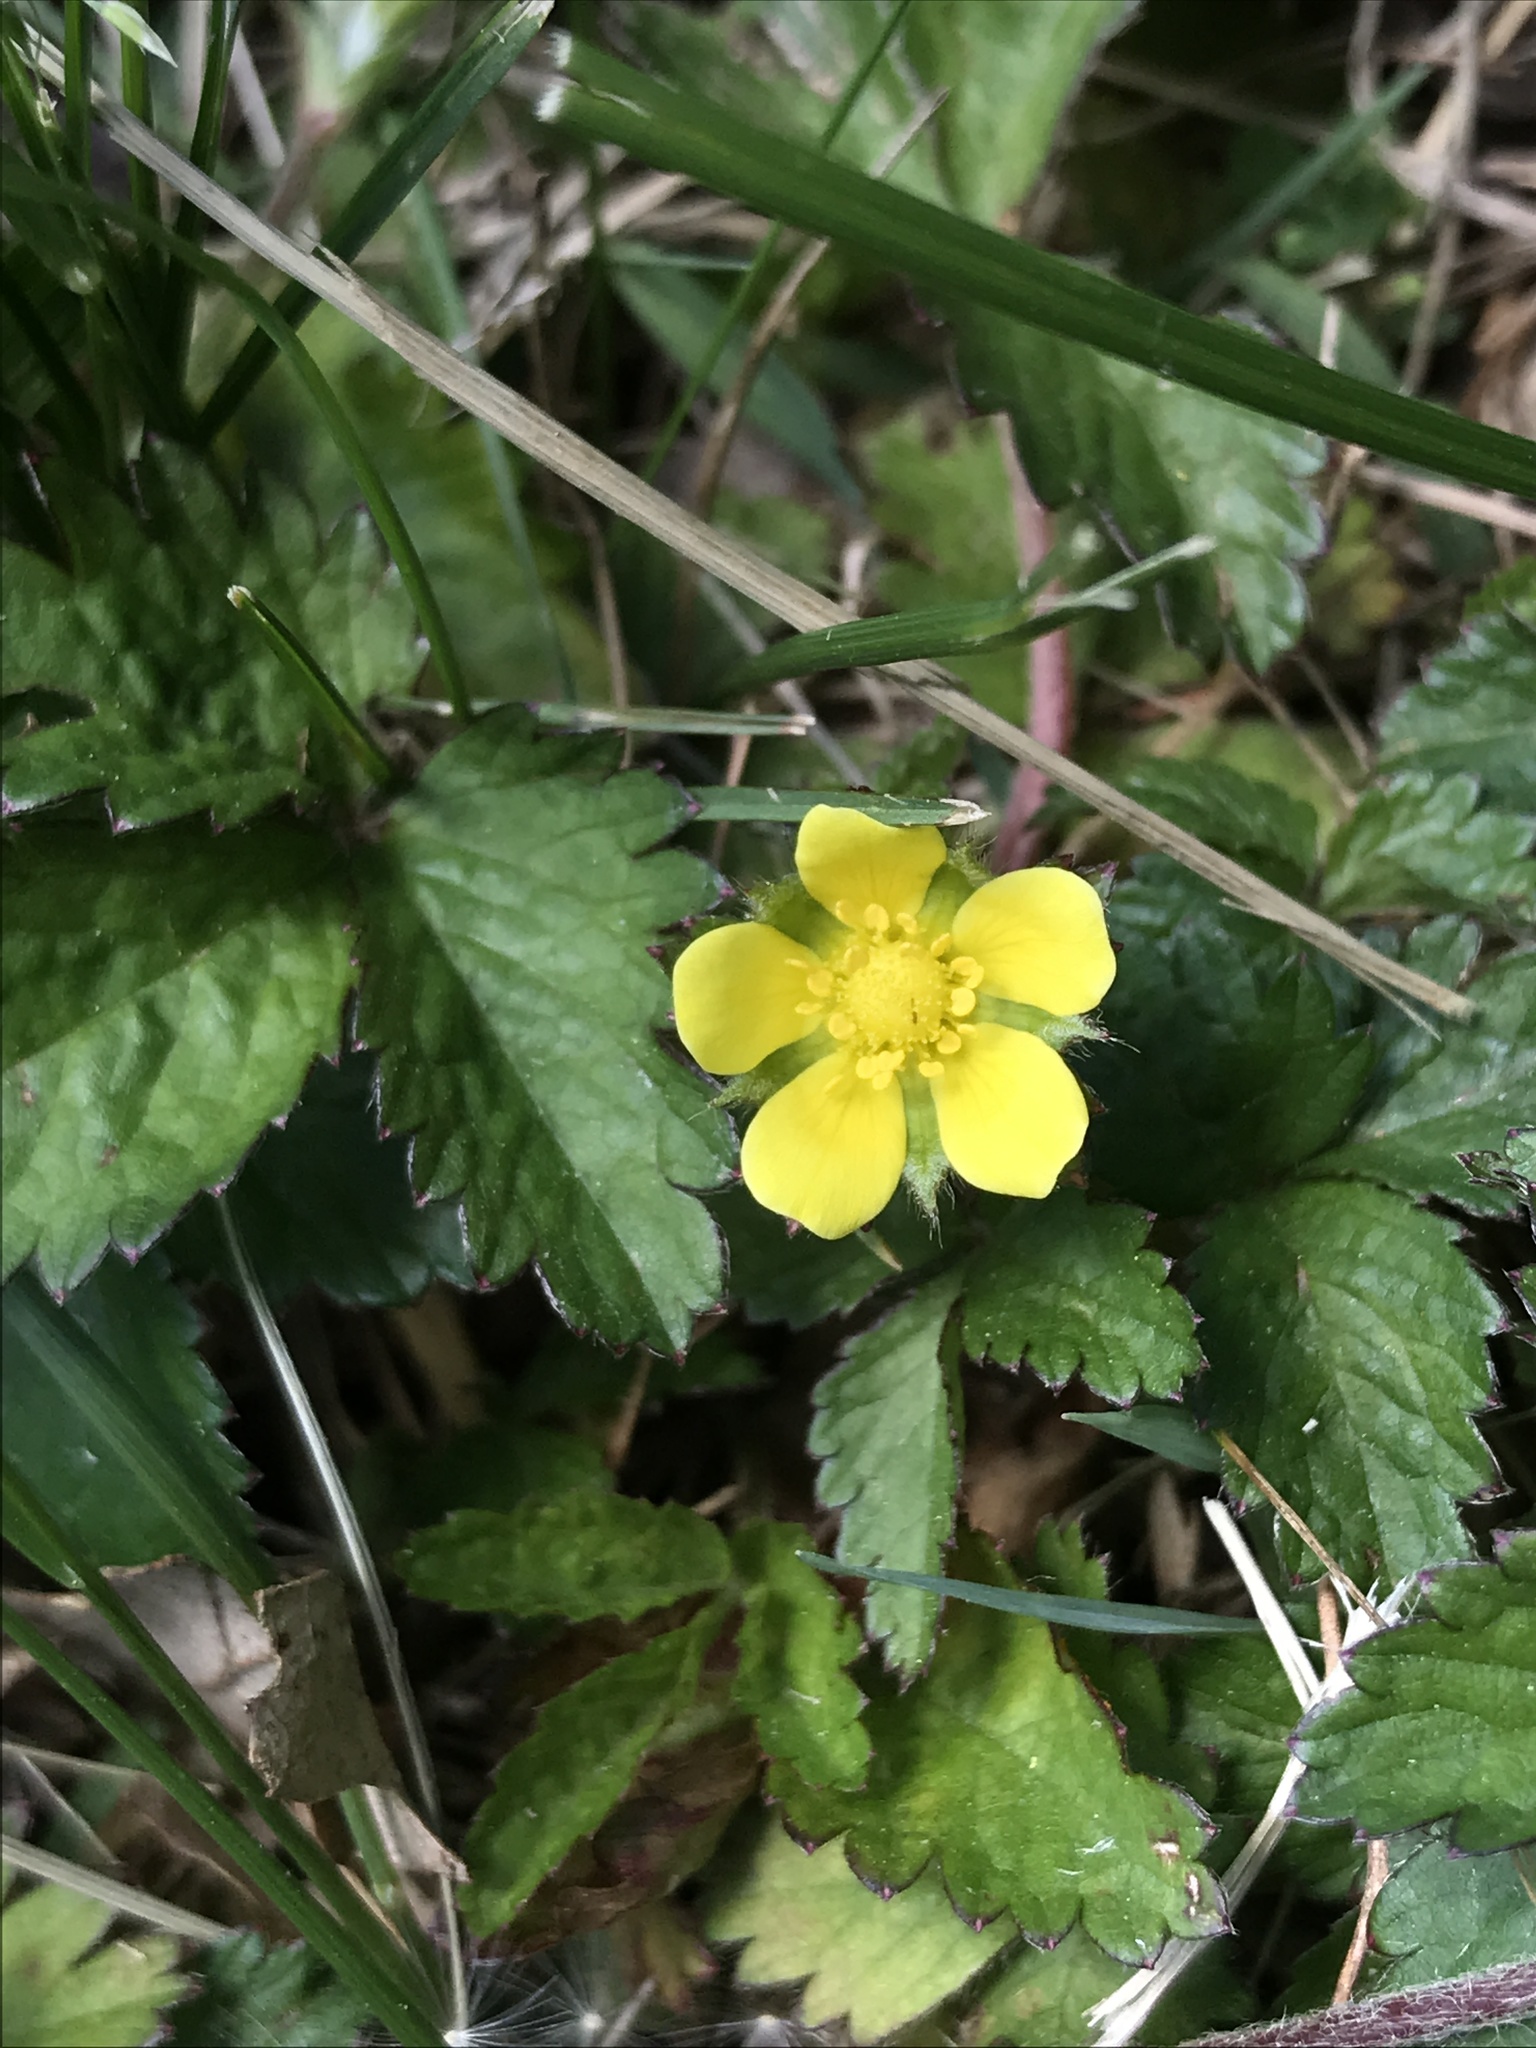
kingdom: Plantae
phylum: Tracheophyta
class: Magnoliopsida
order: Rosales
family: Rosaceae
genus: Potentilla
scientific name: Potentilla indica
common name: Yellow-flowered strawberry
